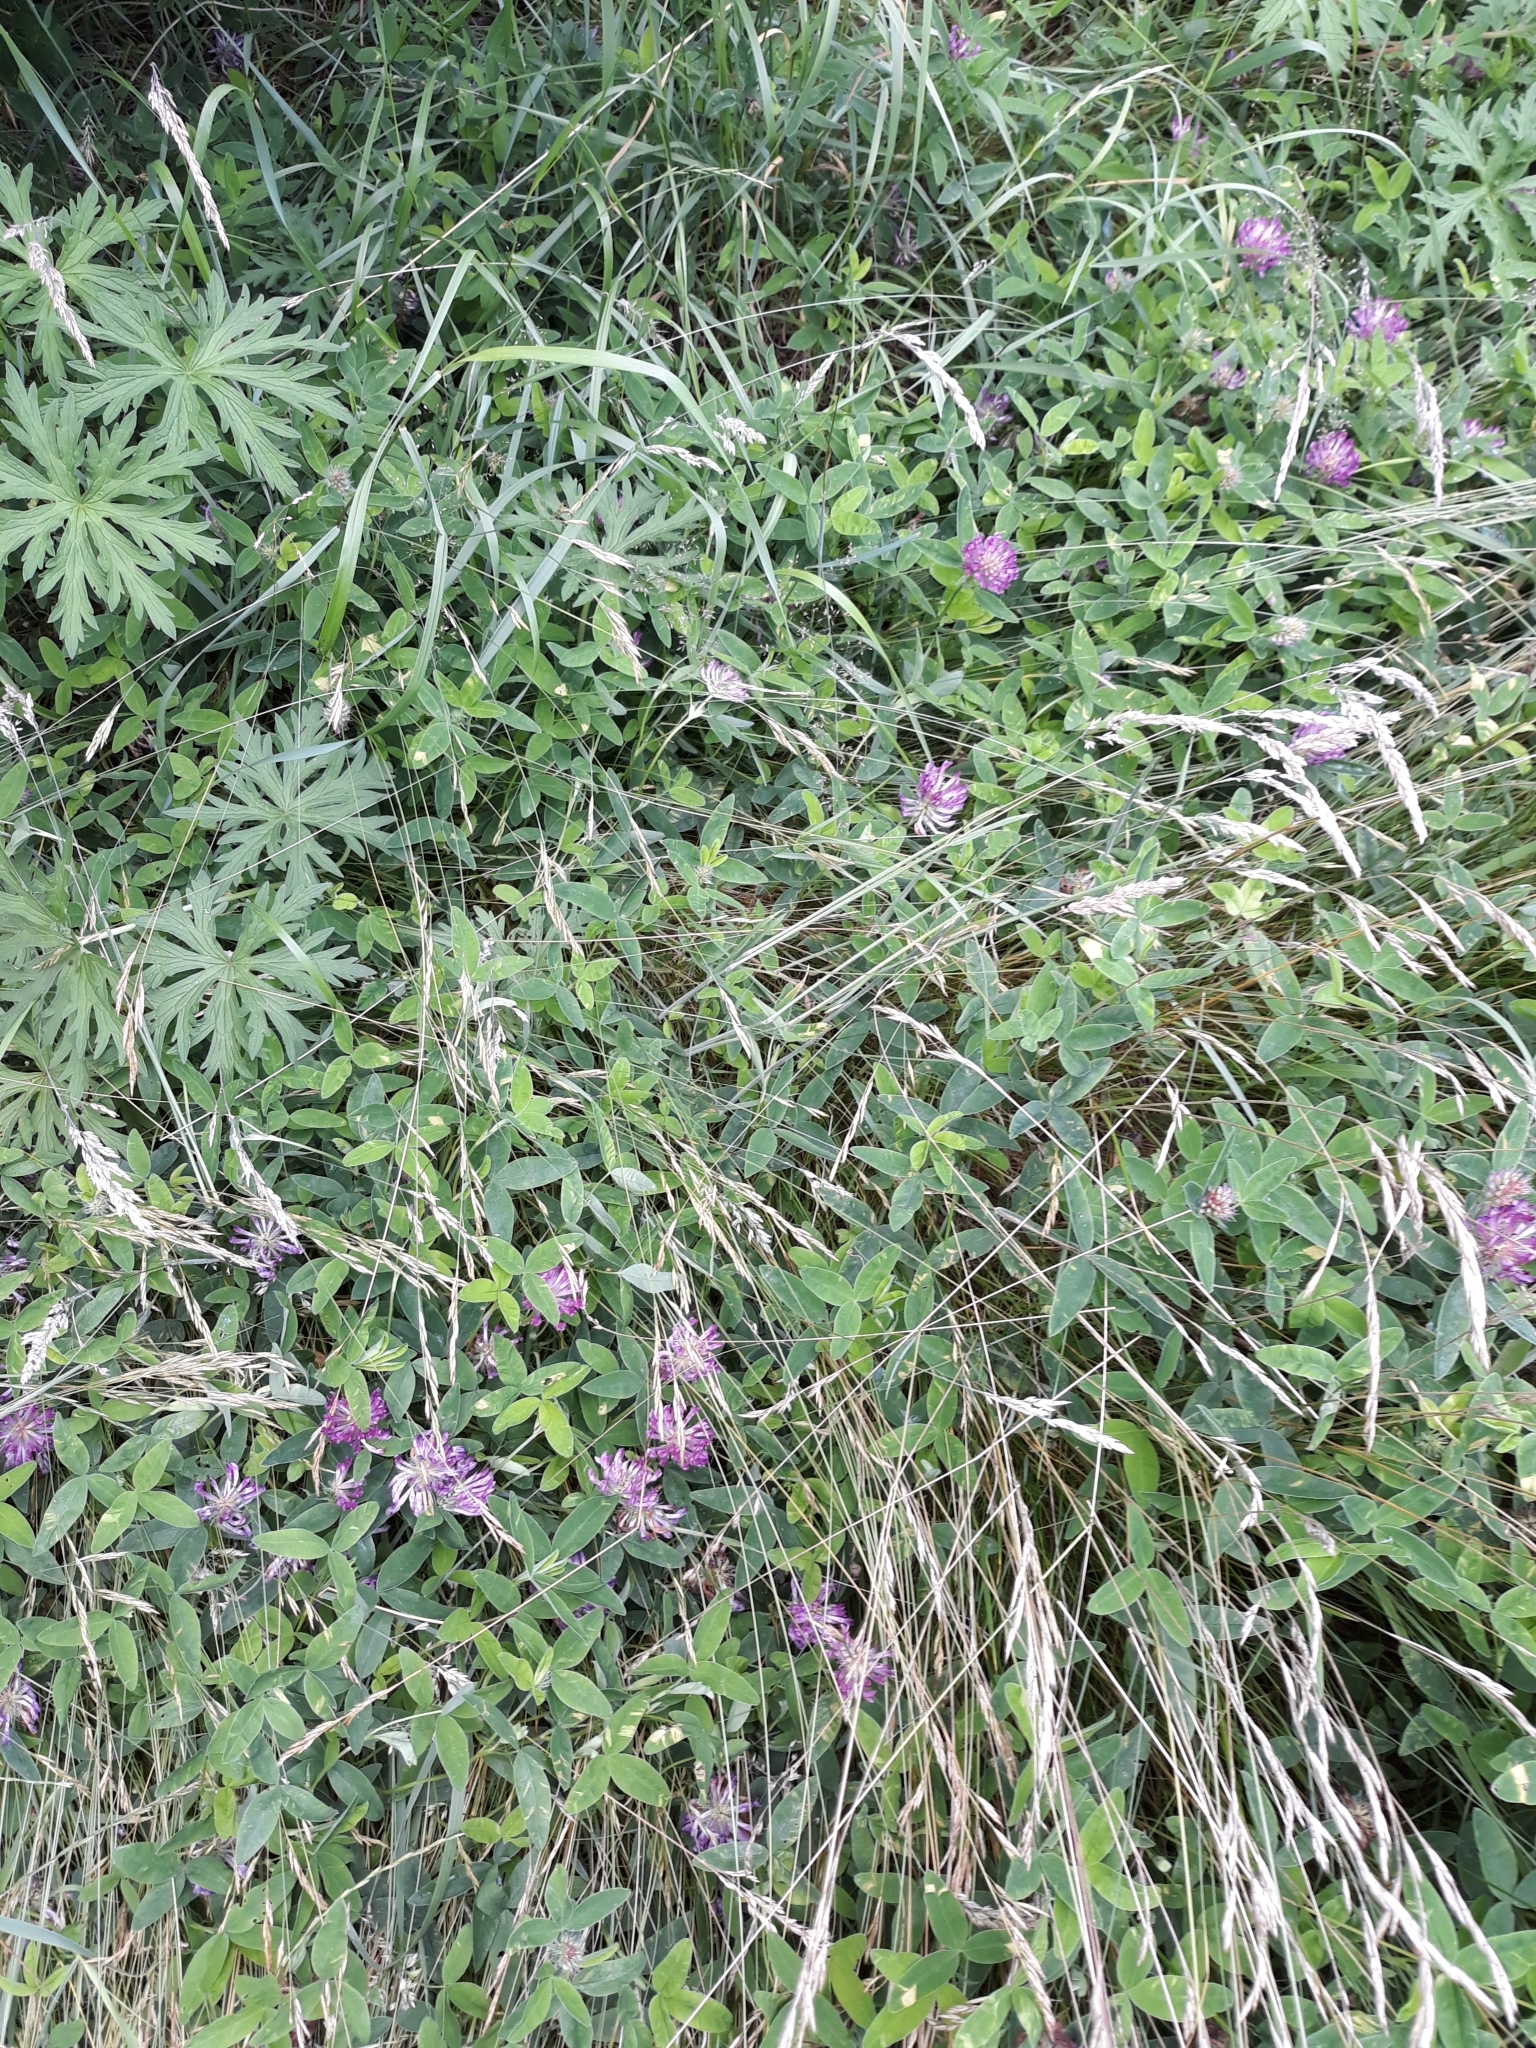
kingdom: Plantae
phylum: Tracheophyta
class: Magnoliopsida
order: Fabales
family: Fabaceae
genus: Trifolium
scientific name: Trifolium medium
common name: Zigzag clover
